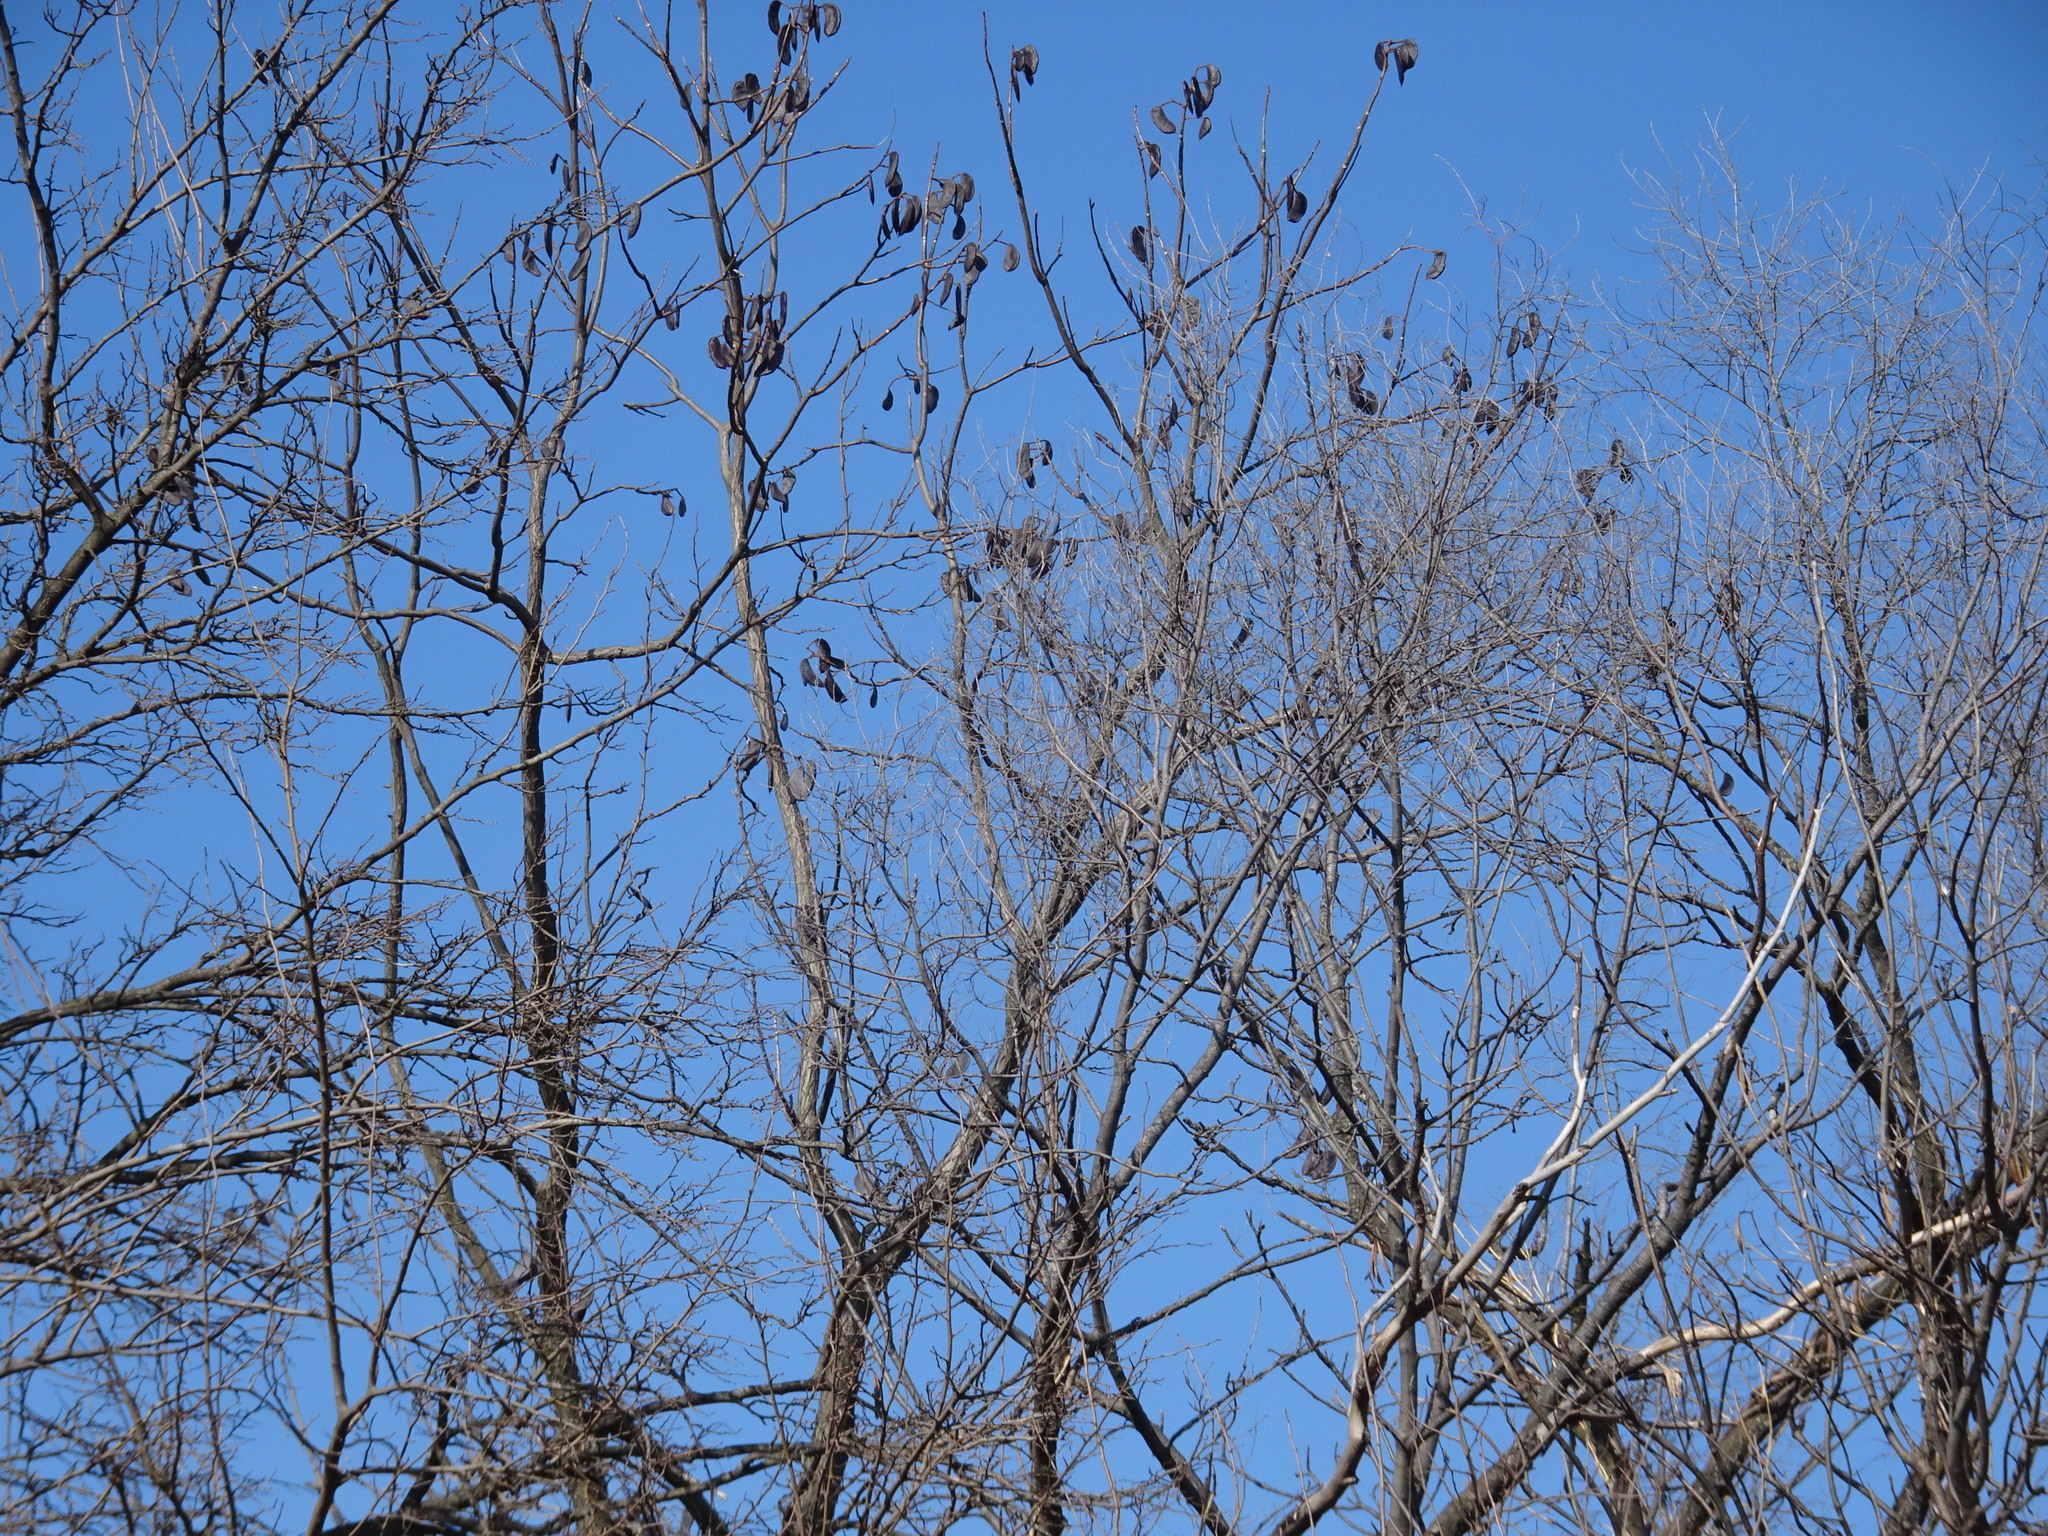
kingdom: Plantae
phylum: Tracheophyta
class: Magnoliopsida
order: Fabales
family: Fabaceae
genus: Gymnocladus
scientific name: Gymnocladus dioicus
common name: Kentucky coffee-tree
